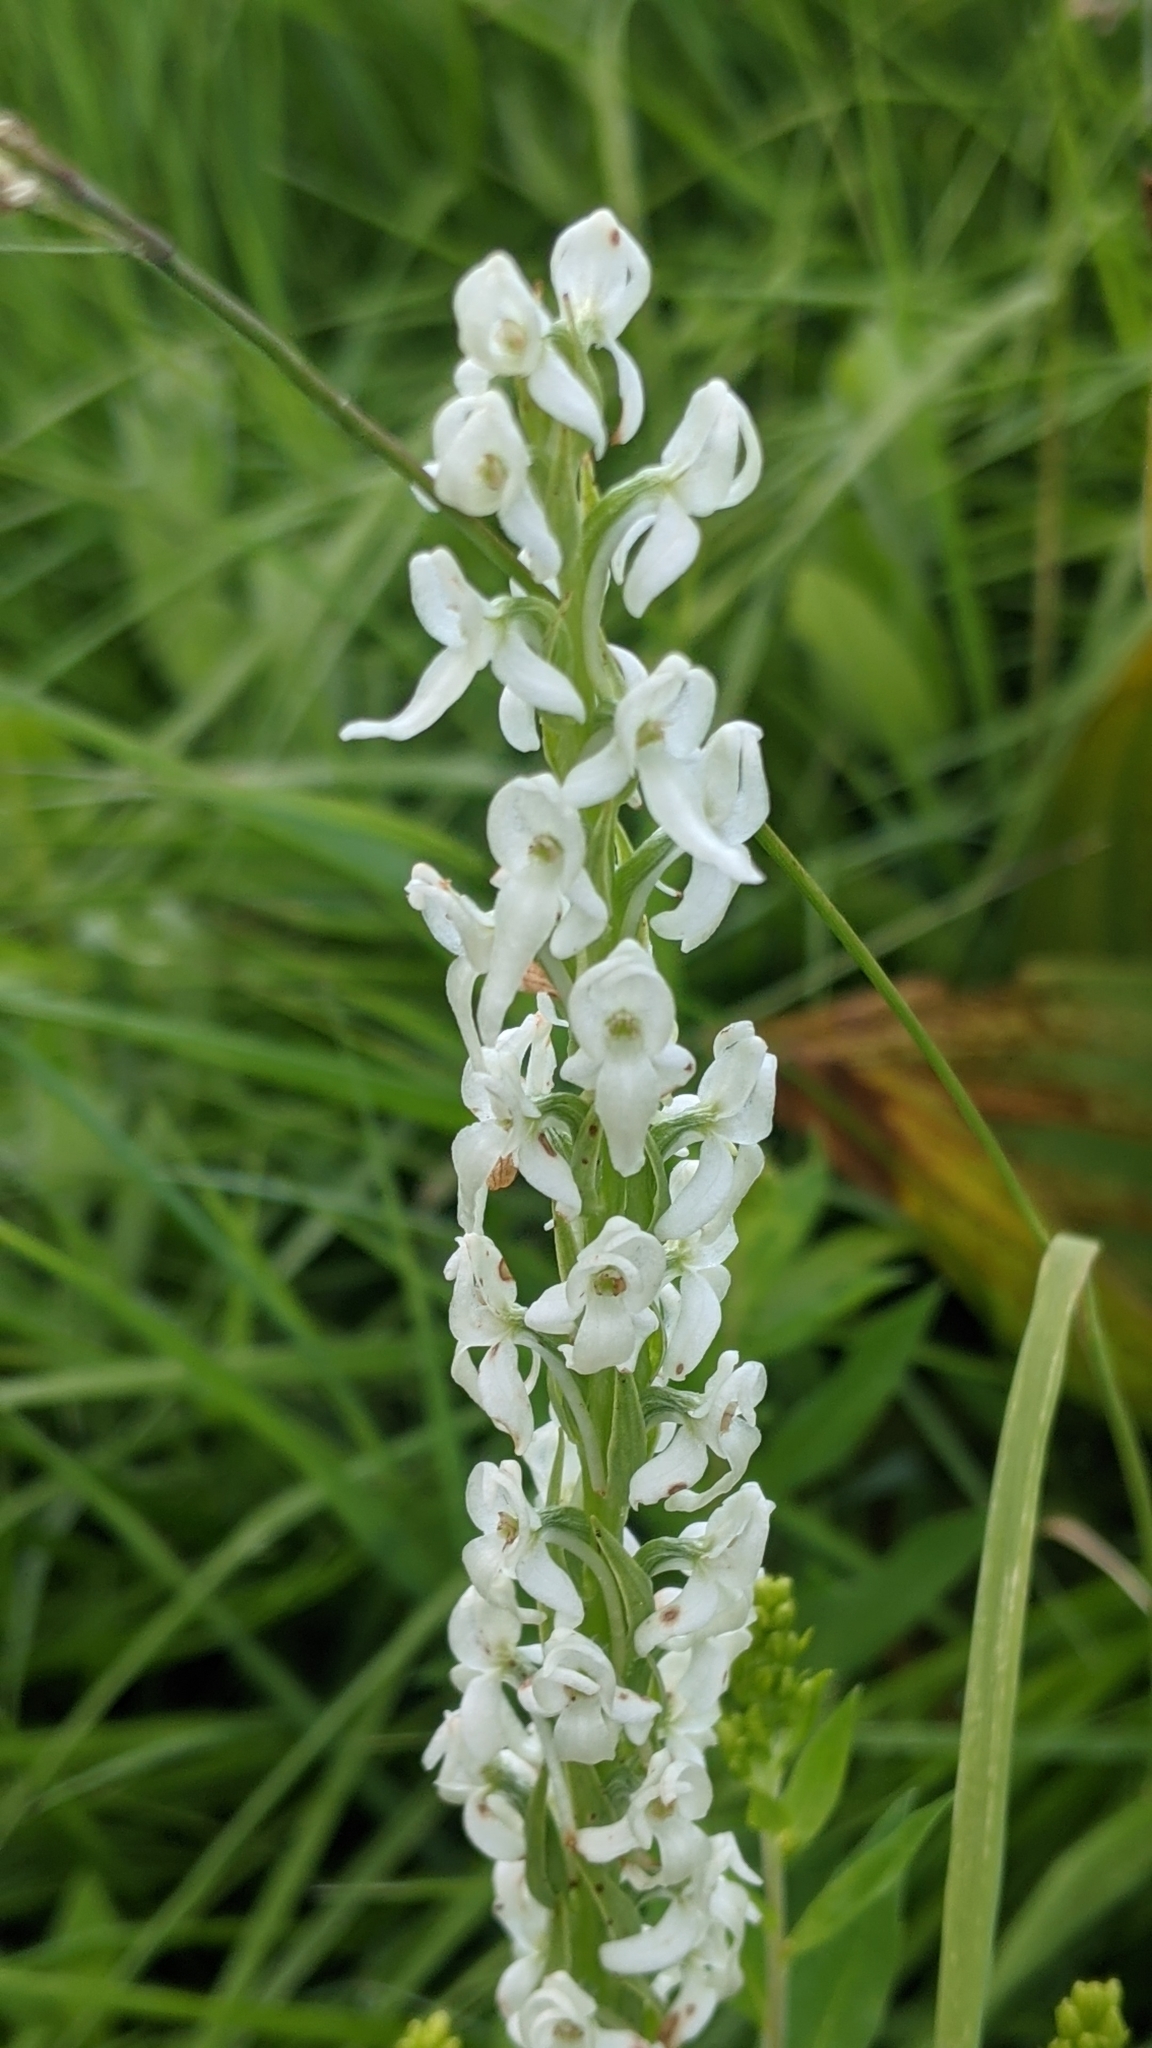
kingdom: Plantae
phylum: Tracheophyta
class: Liliopsida
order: Asparagales
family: Orchidaceae
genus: Platanthera
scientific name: Platanthera dilatata
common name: Bog candles
